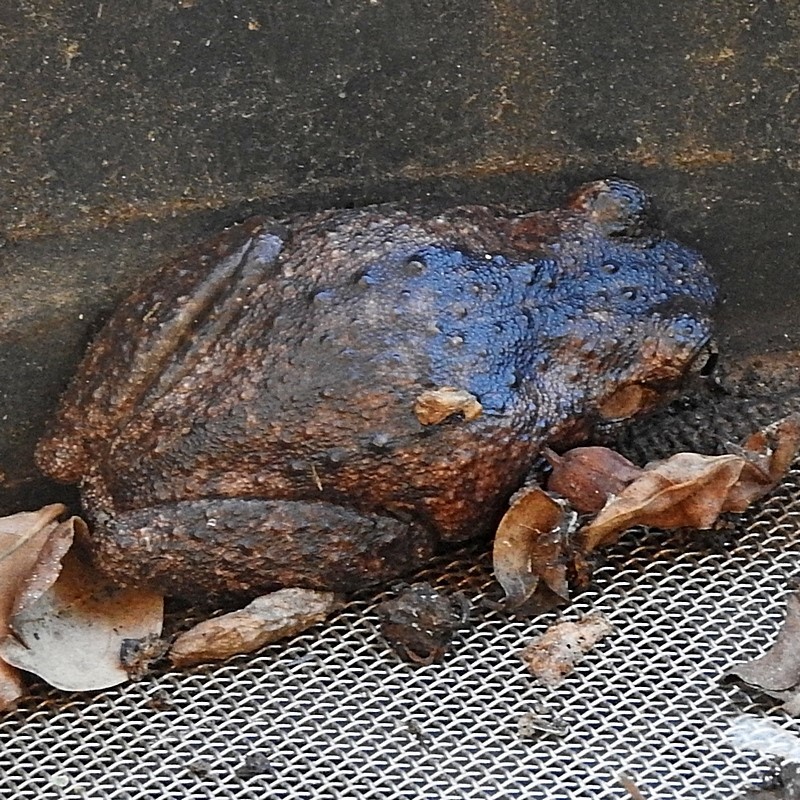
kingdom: Animalia
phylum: Chordata
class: Amphibia
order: Anura
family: Pelodryadidae
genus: Litoria
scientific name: Litoria peronii
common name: Emerald spotted treefrog
